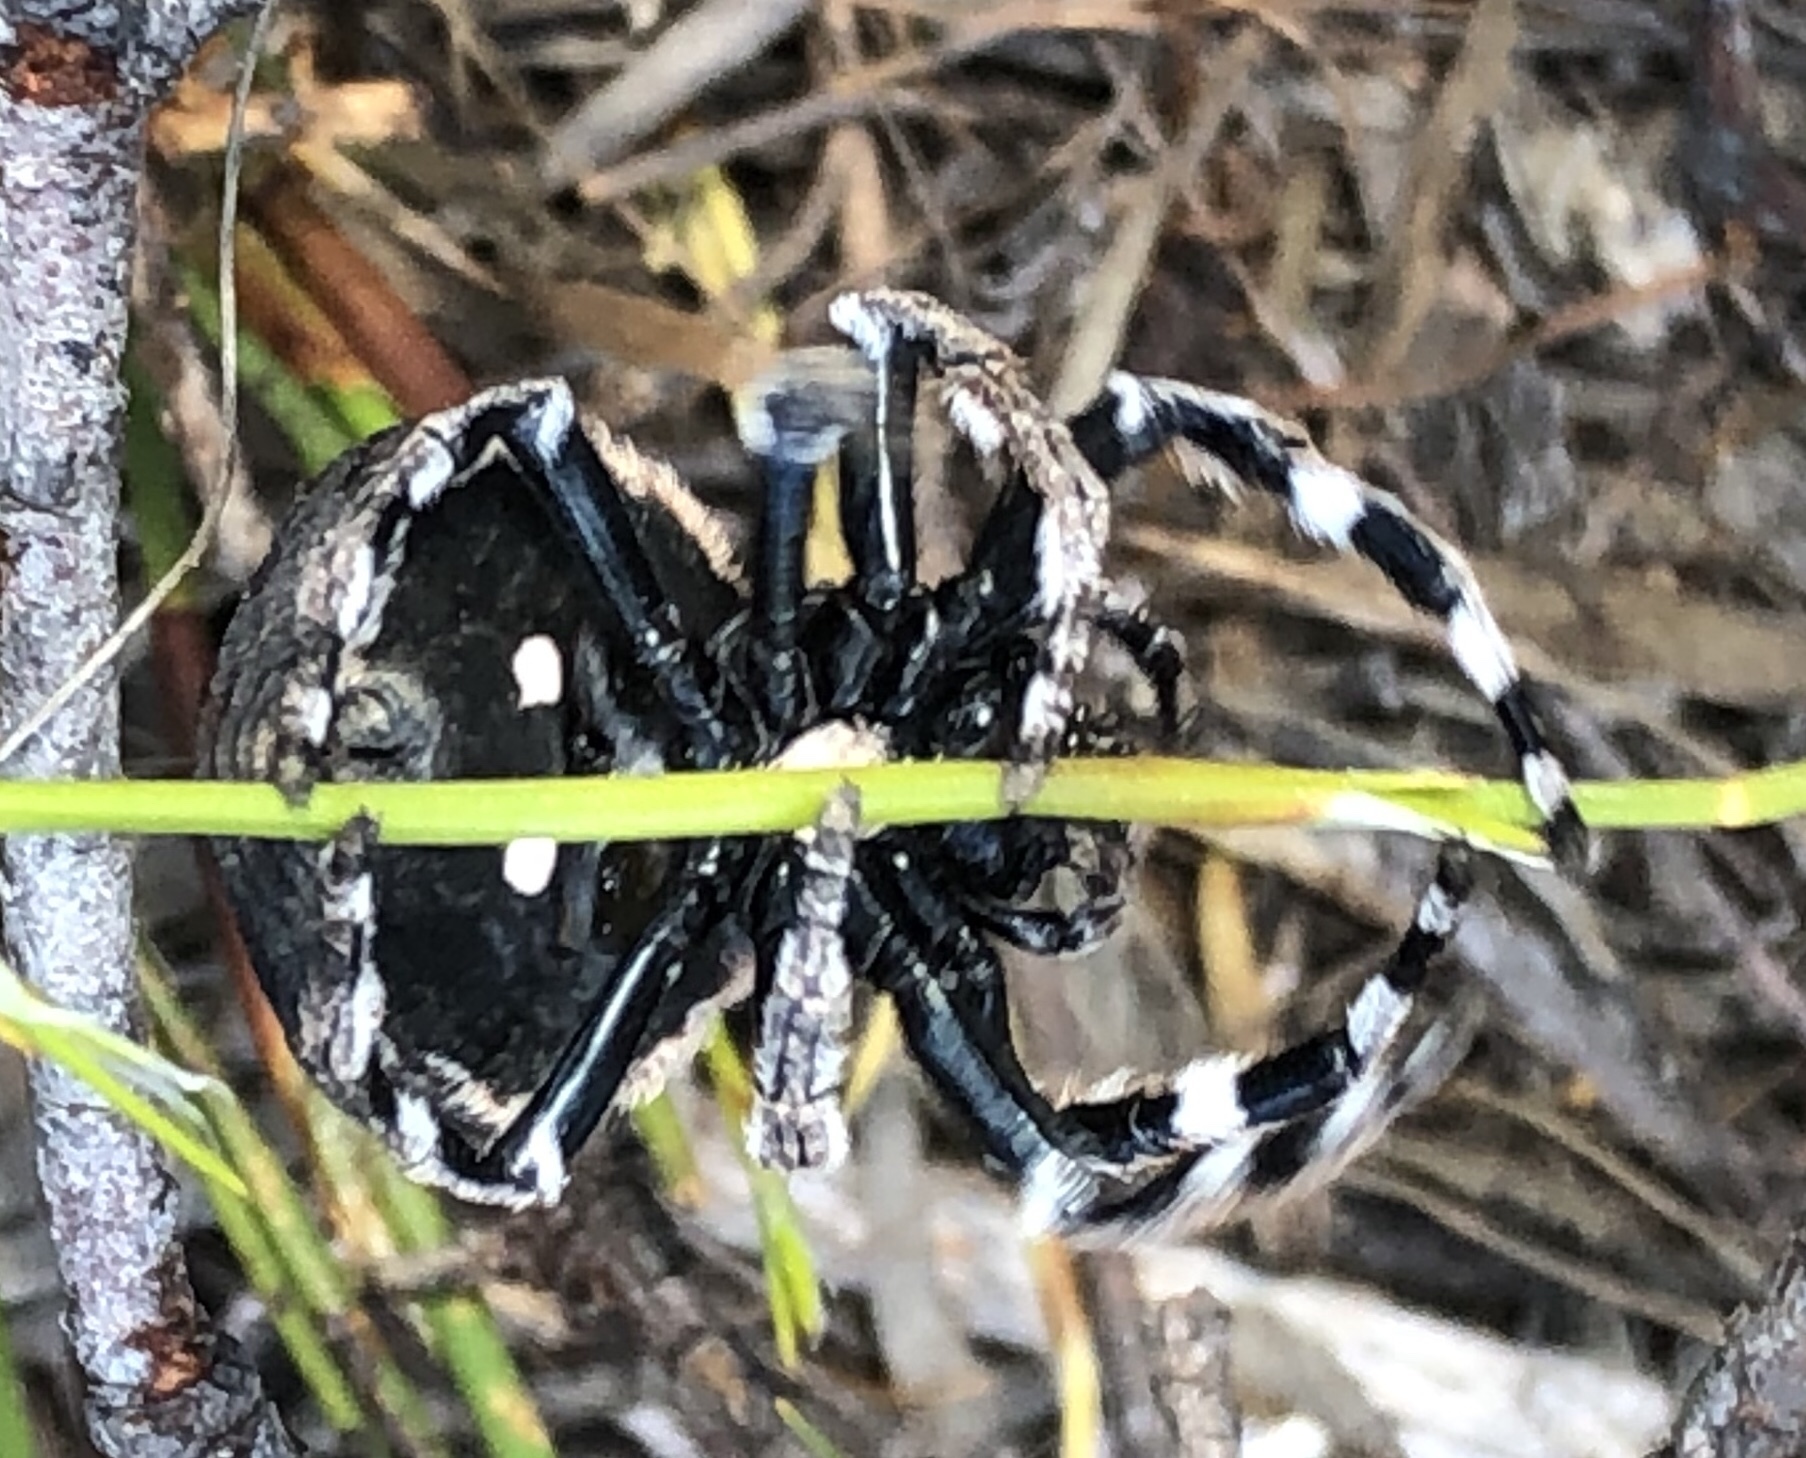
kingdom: Animalia
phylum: Arthropoda
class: Arachnida
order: Araneae
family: Araneidae
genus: Caerostris
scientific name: Caerostris sexcuspidata
